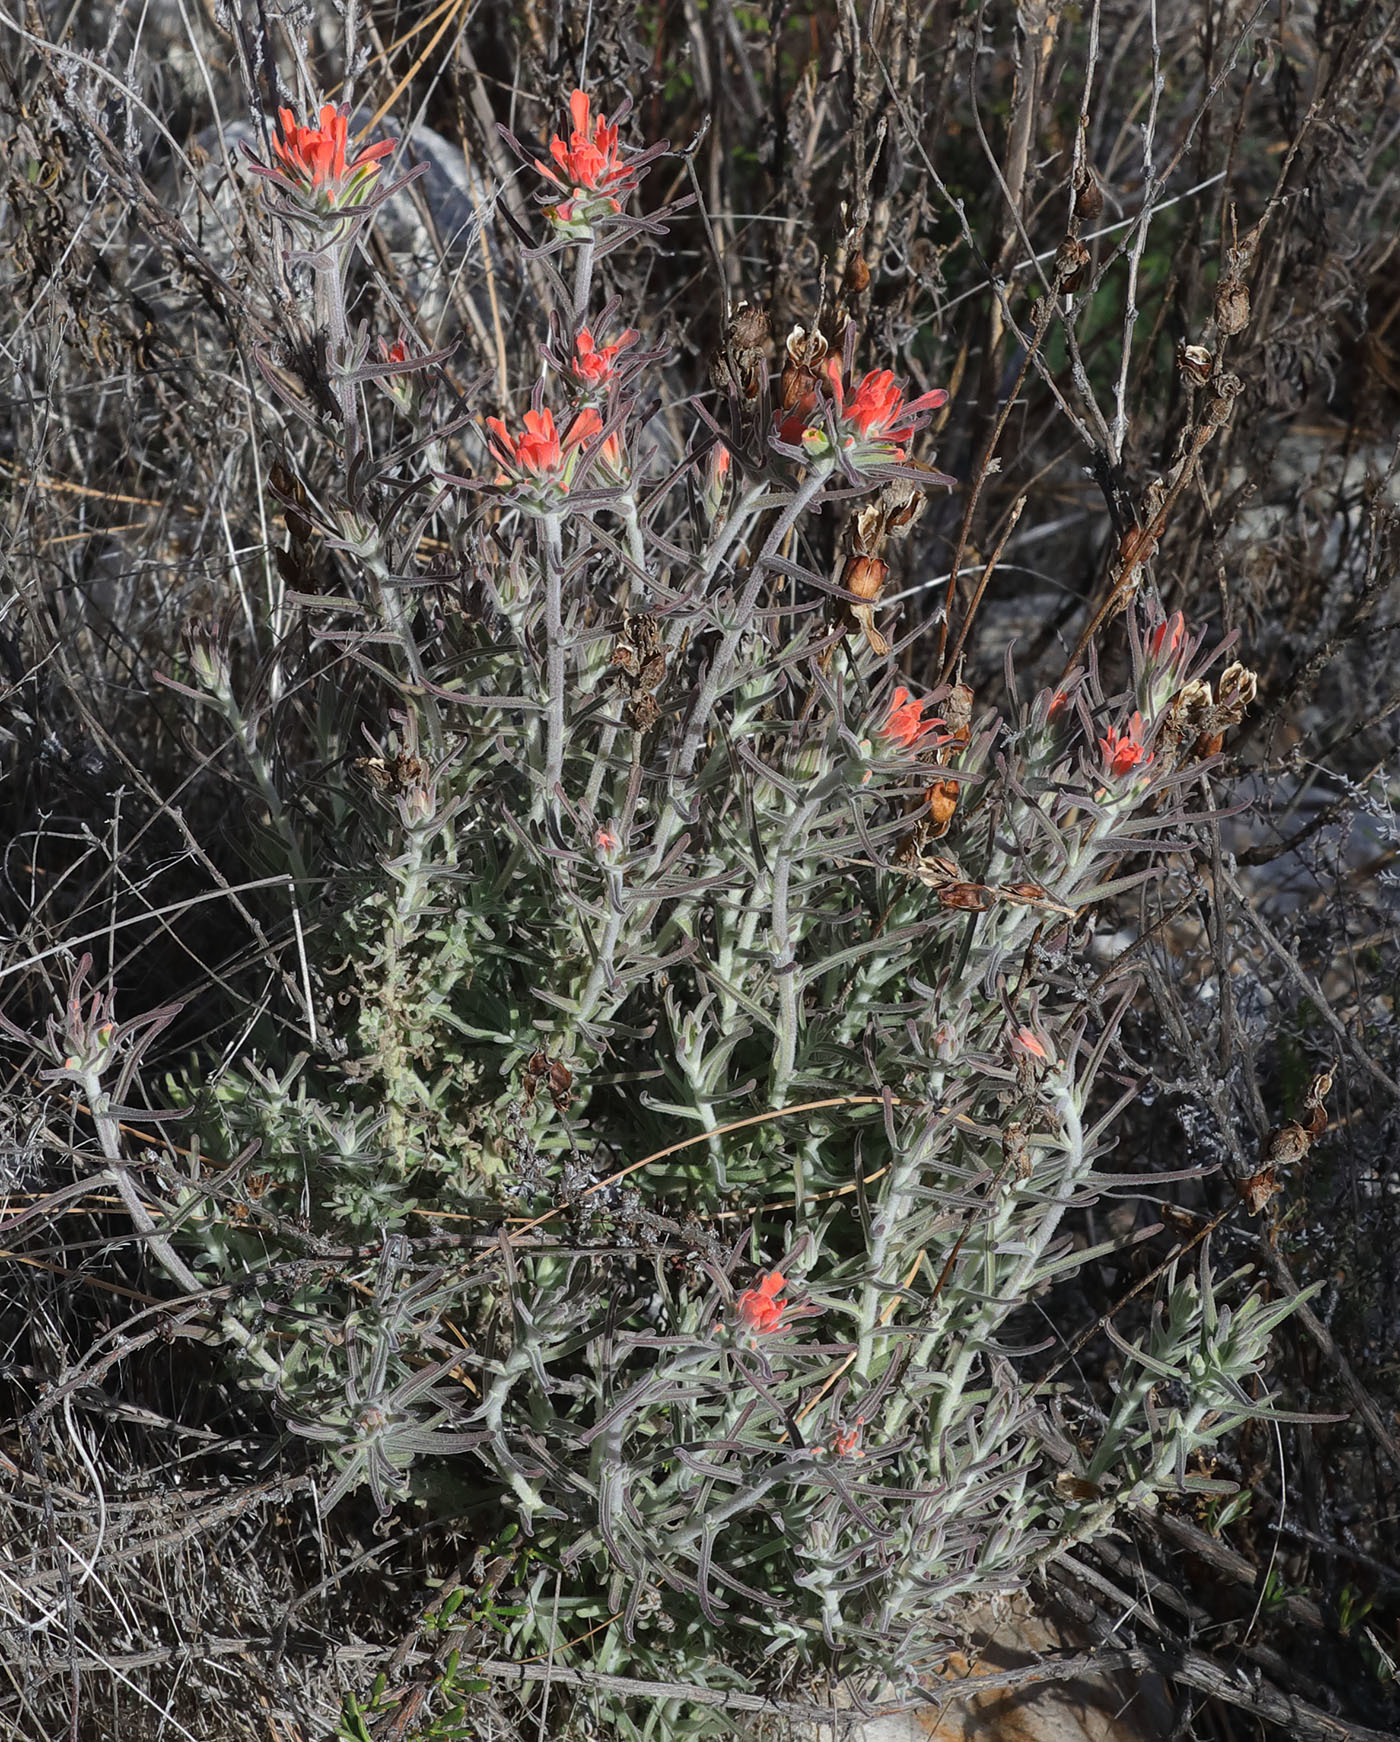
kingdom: Plantae
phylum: Tracheophyta
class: Magnoliopsida
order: Lamiales
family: Orobanchaceae
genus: Castilleja
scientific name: Castilleja foliolosa
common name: Woolly indian paintbrush
